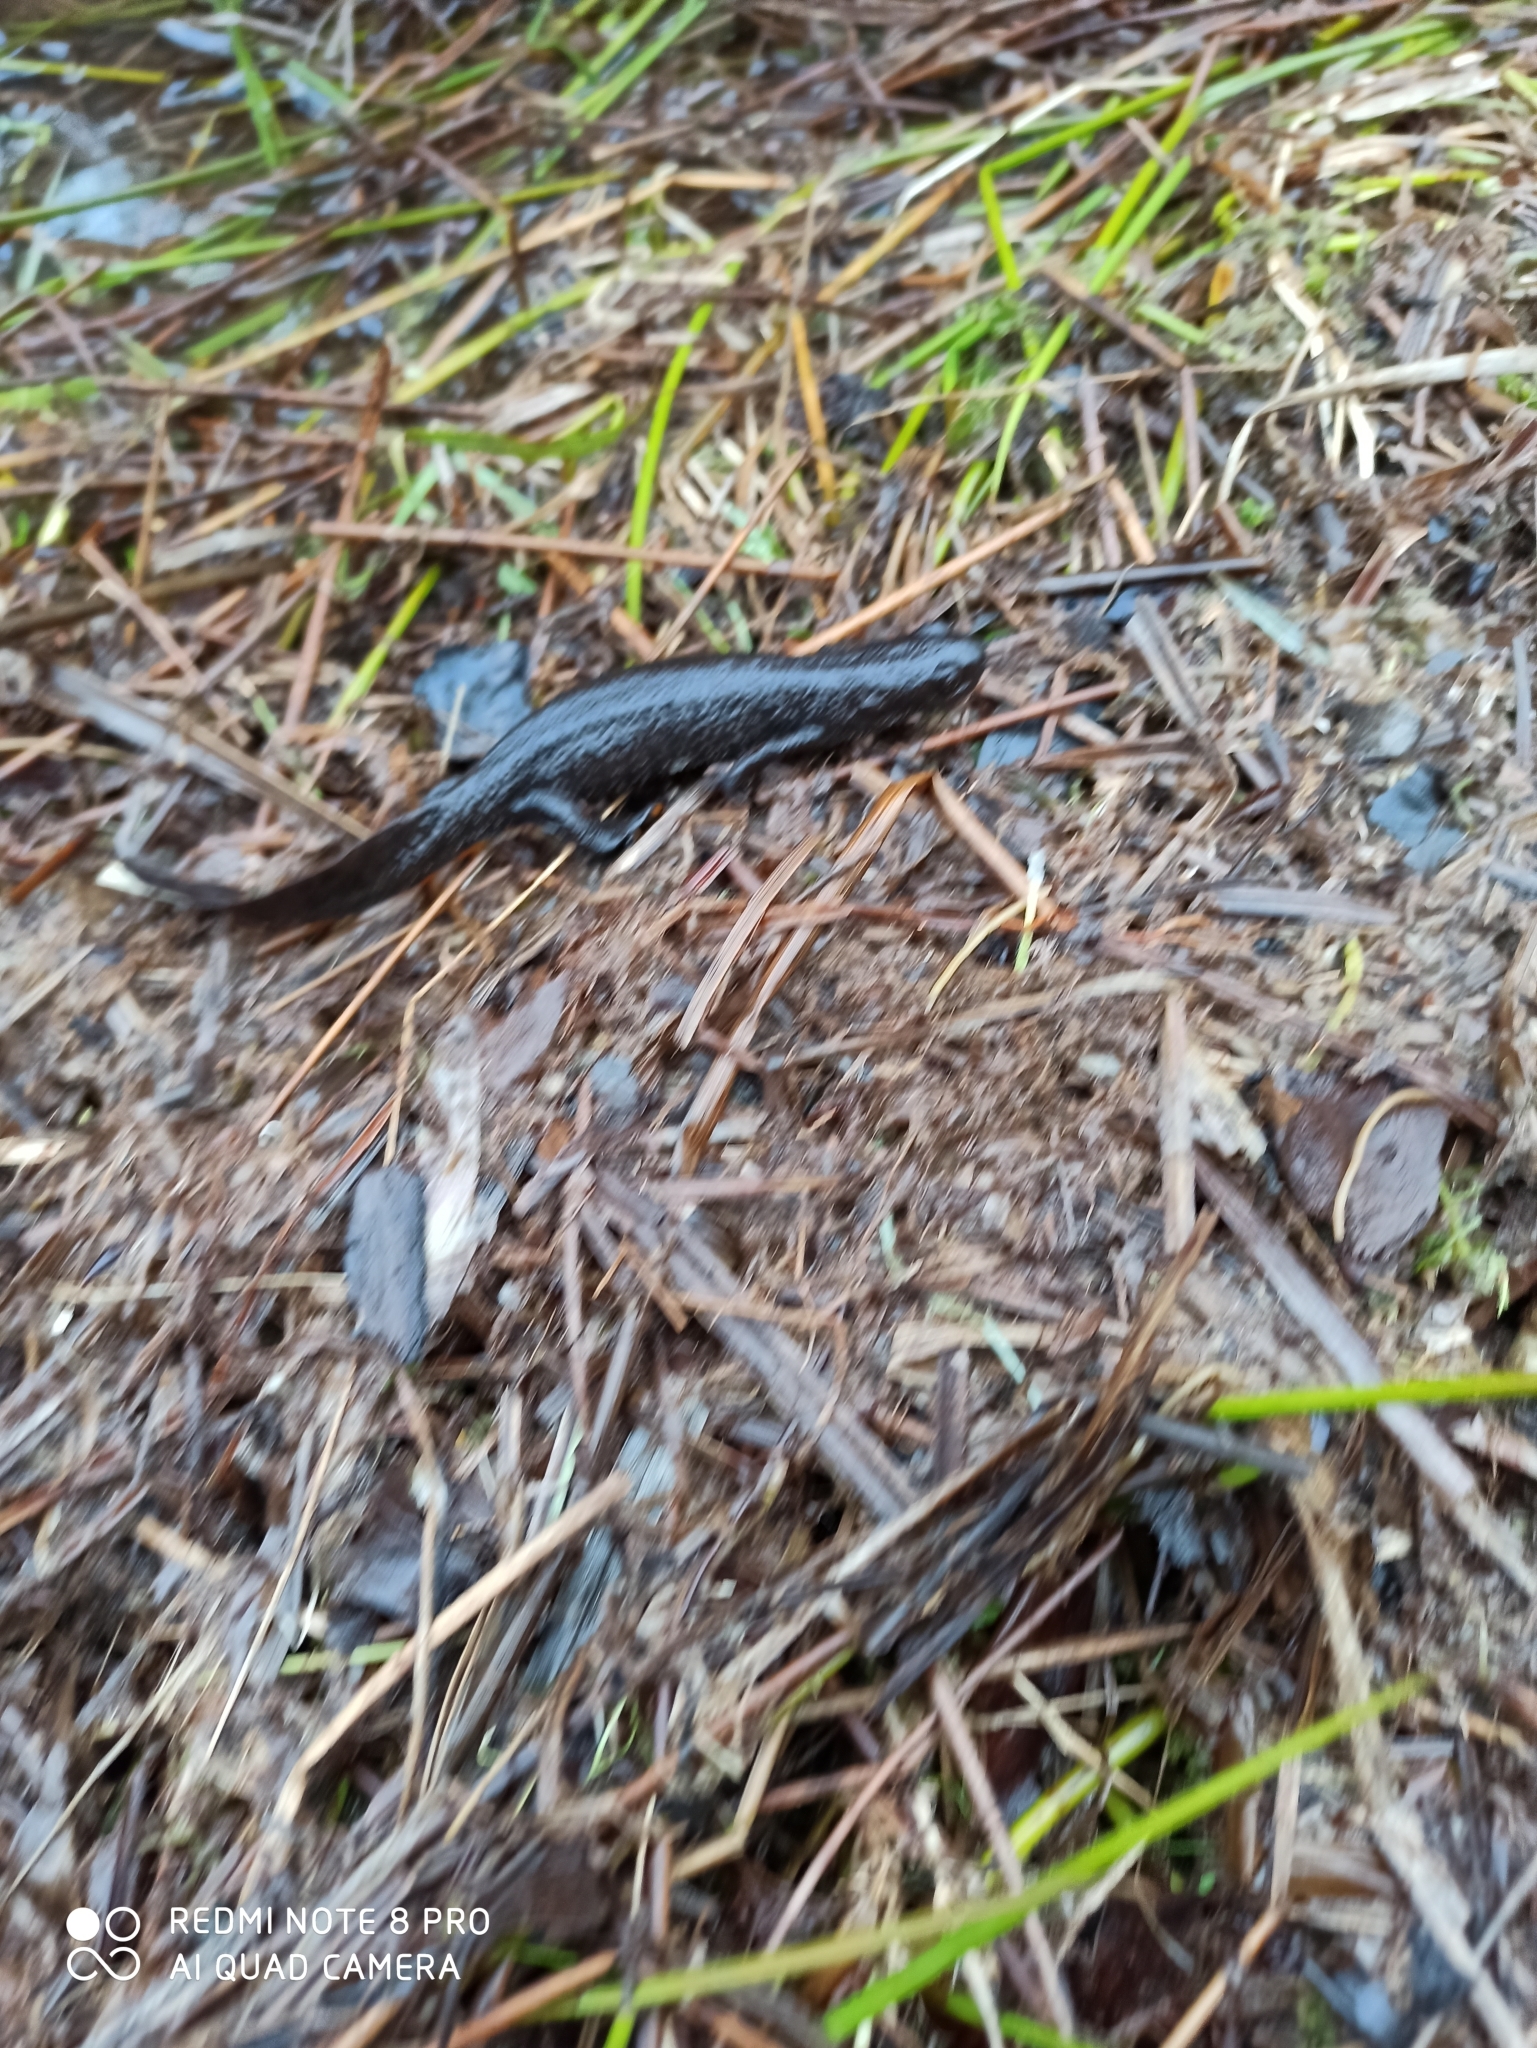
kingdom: Animalia
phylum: Chordata
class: Amphibia
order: Caudata
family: Salamandridae
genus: Triturus
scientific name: Triturus cristatus
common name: Crested newt
